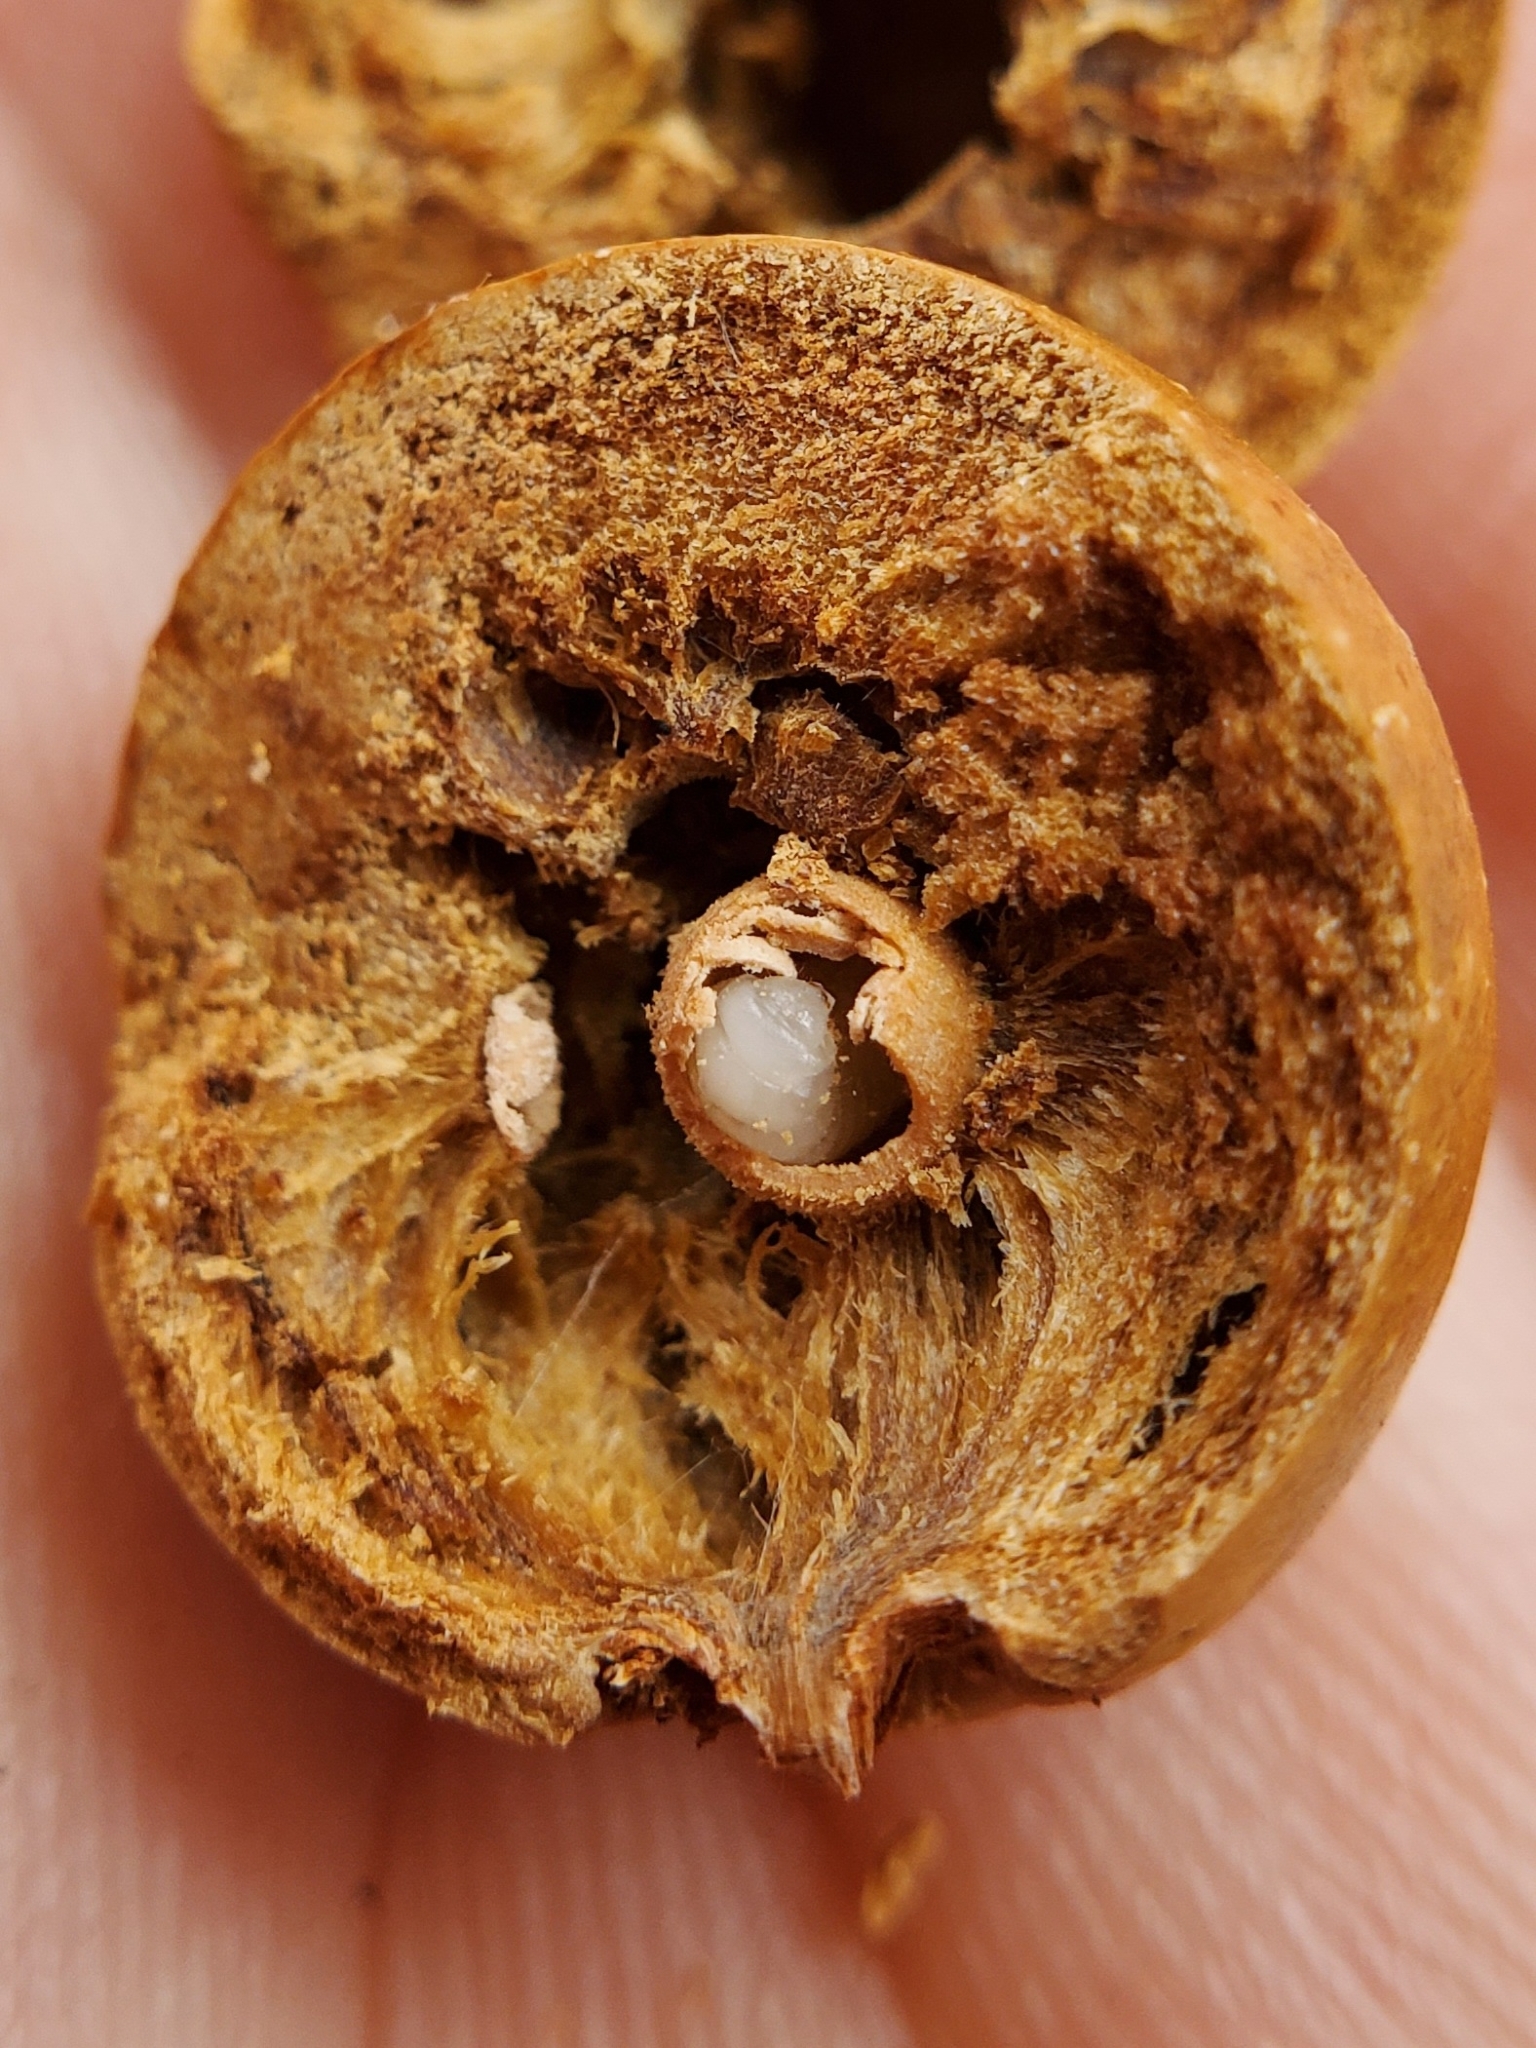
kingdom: Animalia
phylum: Arthropoda
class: Insecta
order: Hymenoptera
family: Cynipidae
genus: Disholcaspis
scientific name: Disholcaspis quercusglobulus
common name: Round bullet gall wasp
